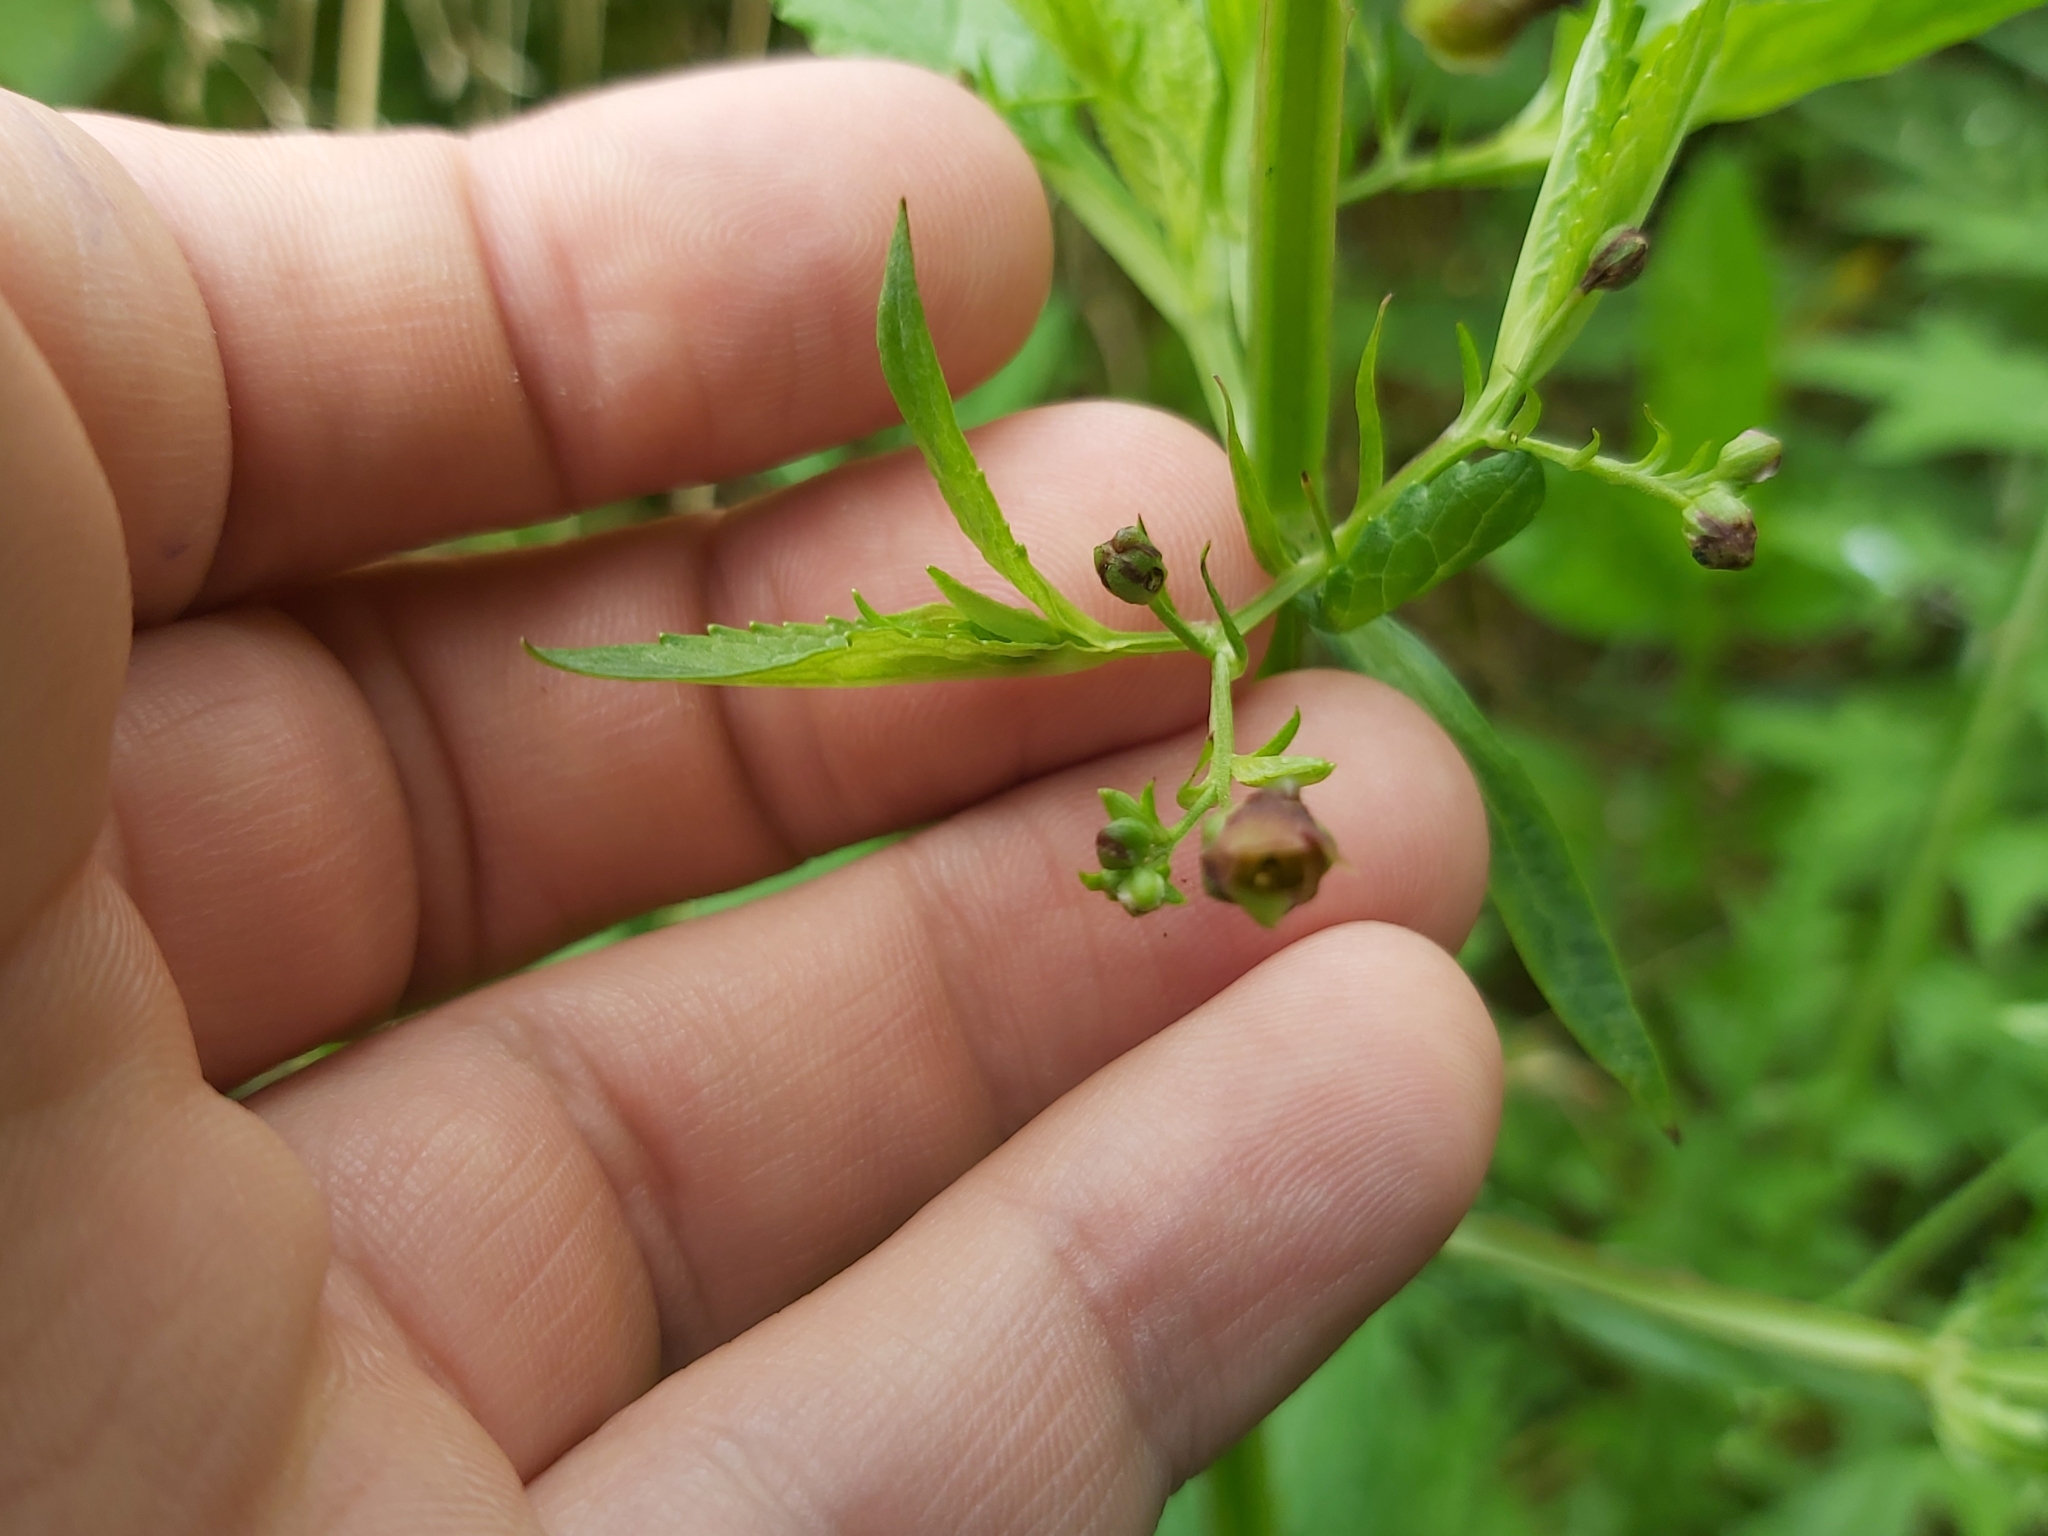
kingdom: Plantae
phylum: Tracheophyta
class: Magnoliopsida
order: Lamiales
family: Scrophulariaceae
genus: Scrophularia
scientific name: Scrophularia umbrosa
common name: Green figwort
